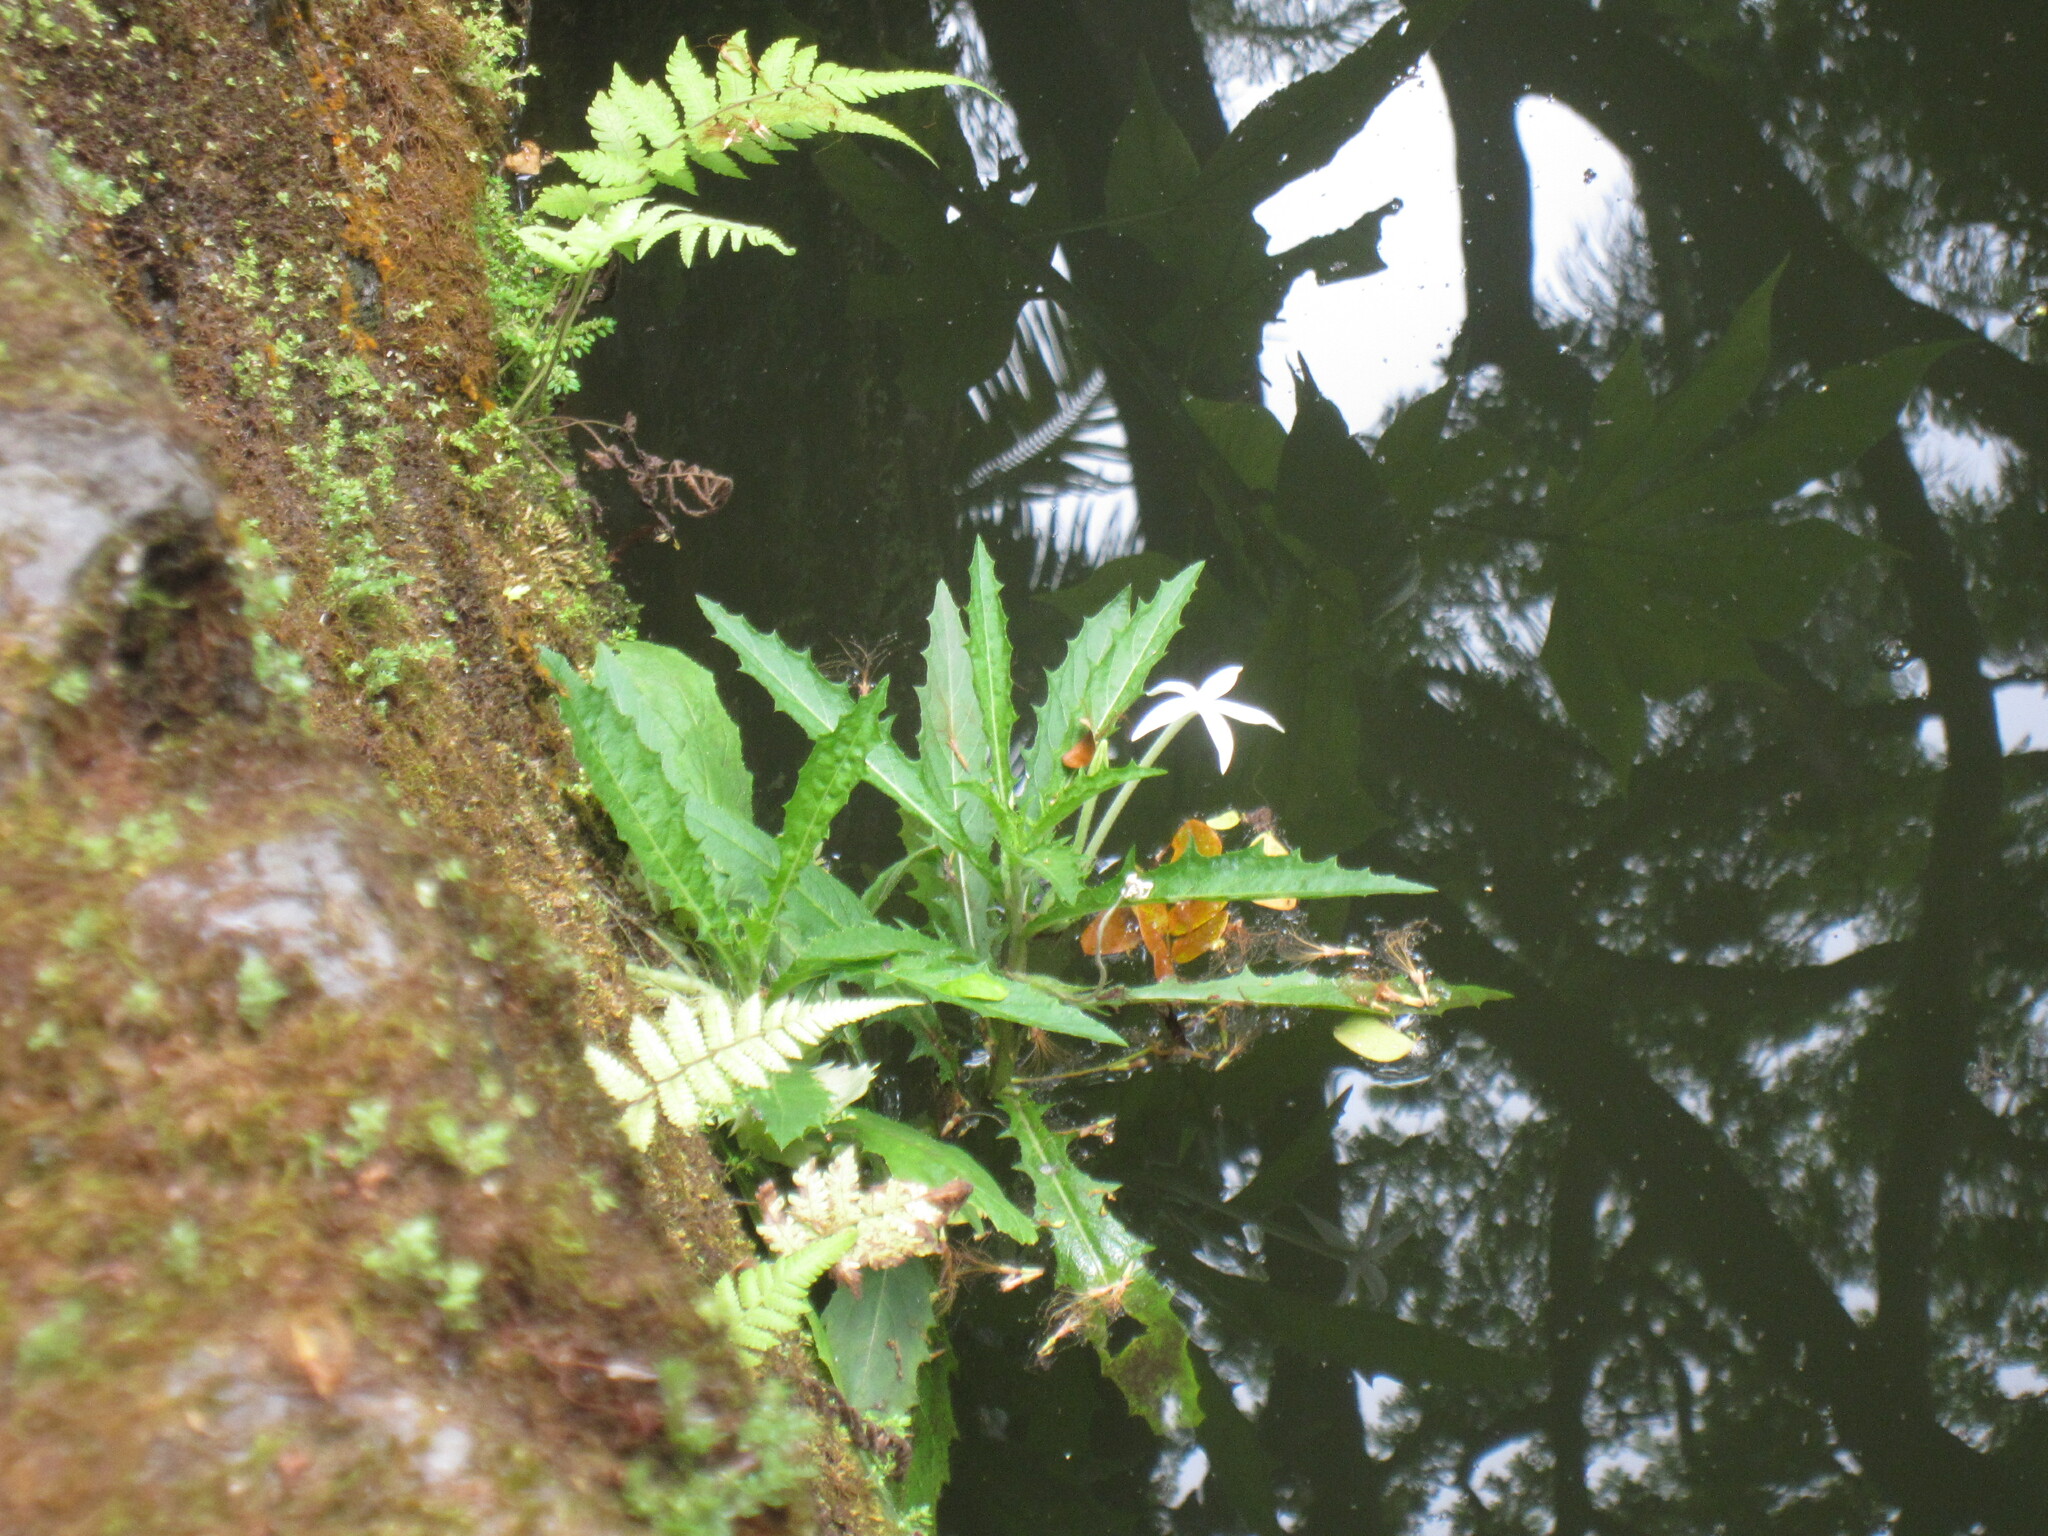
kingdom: Plantae
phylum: Tracheophyta
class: Magnoliopsida
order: Asterales
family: Campanulaceae
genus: Hippobroma
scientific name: Hippobroma longiflora
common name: Madamfate
